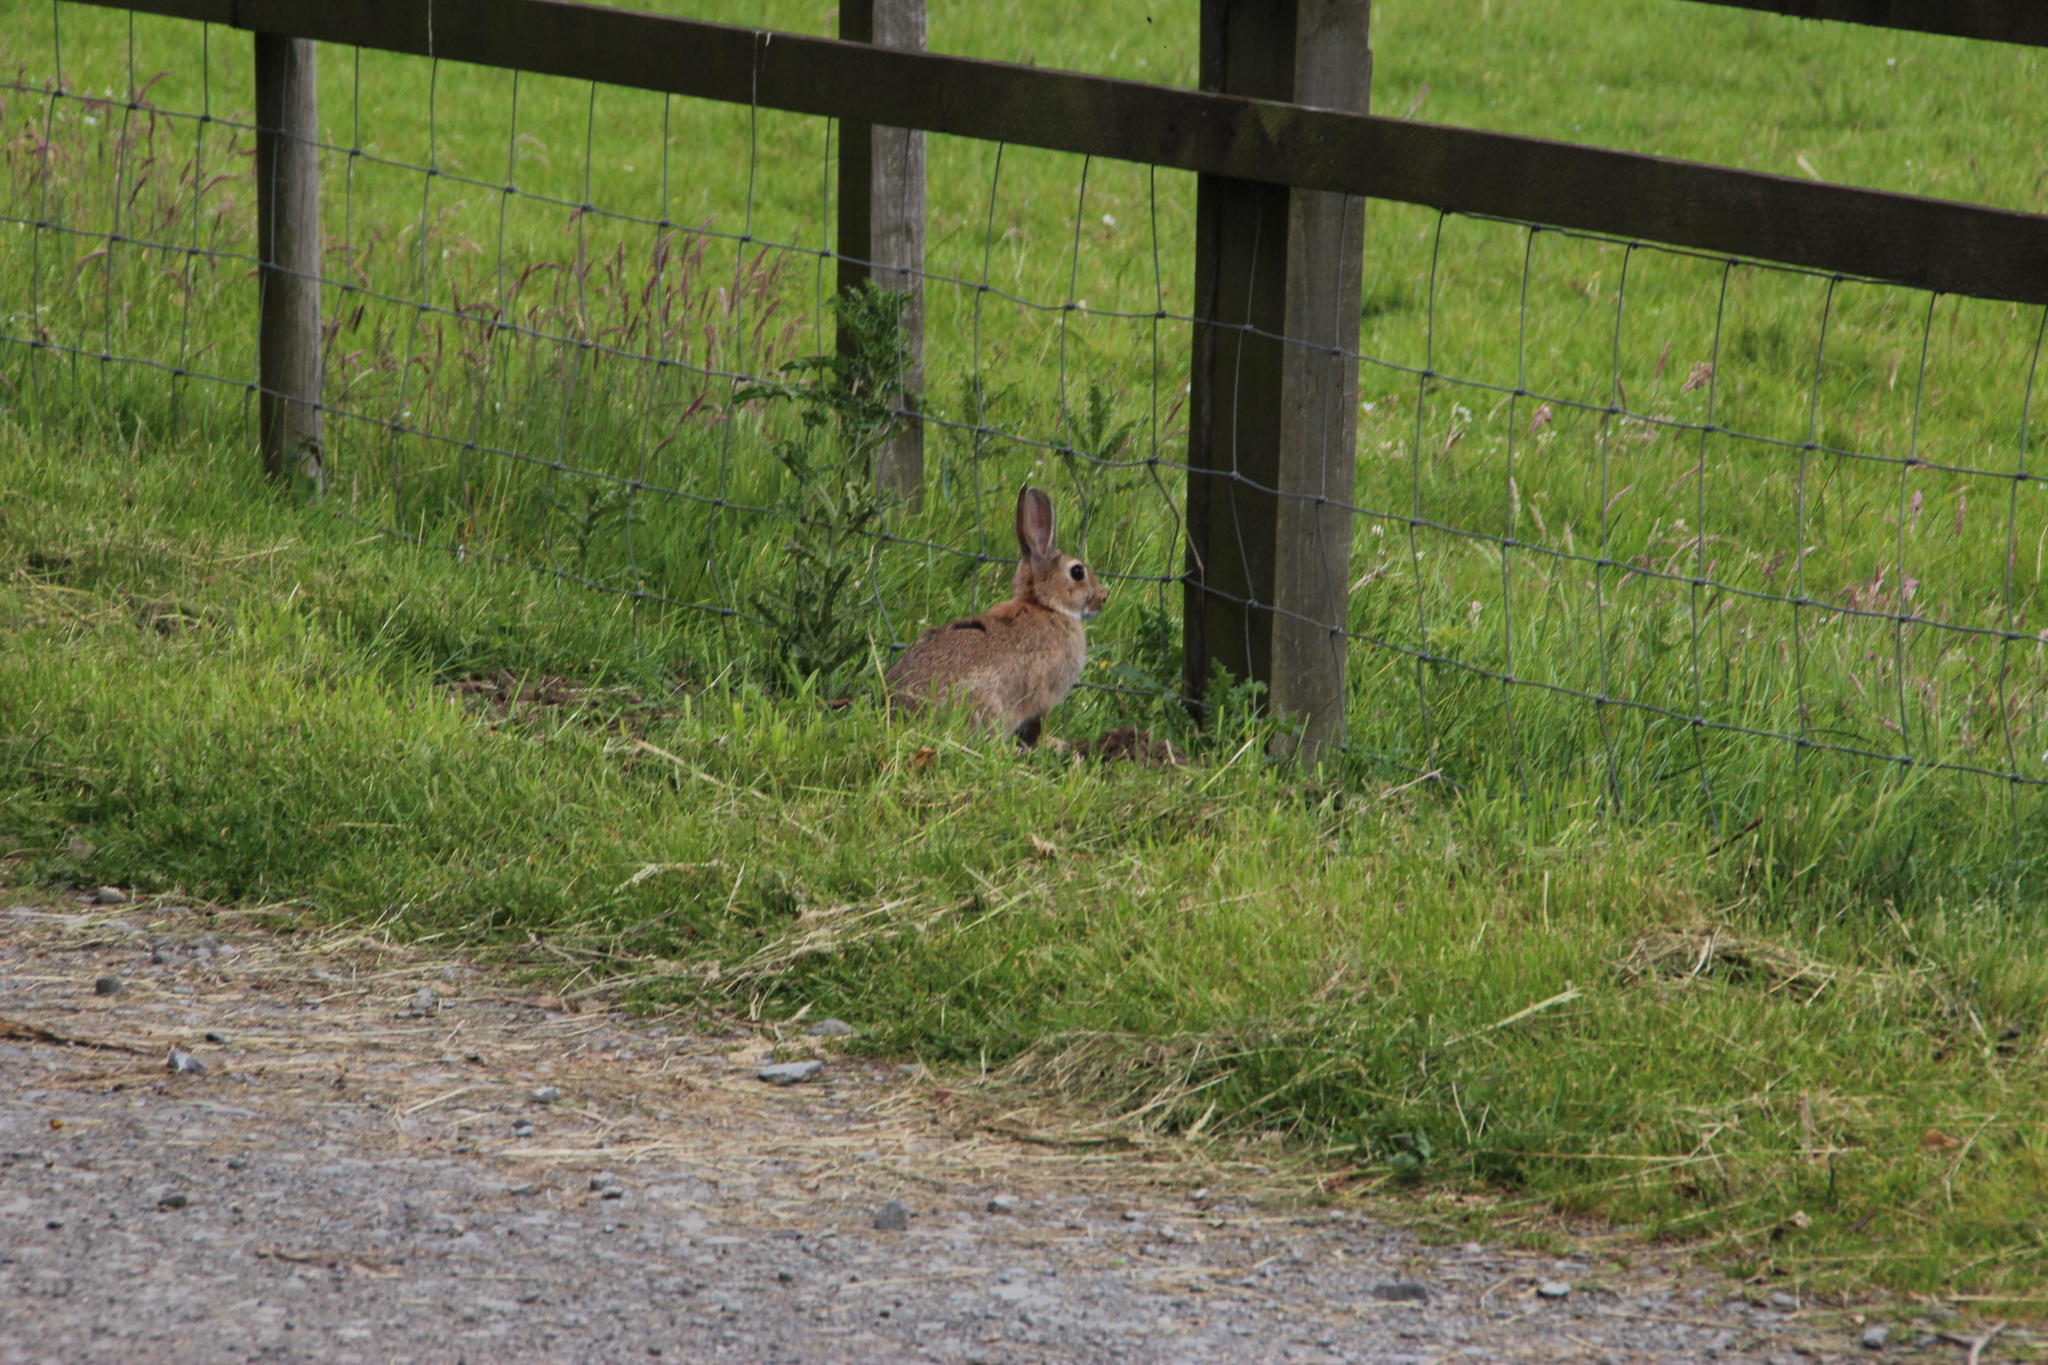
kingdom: Animalia
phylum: Chordata
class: Mammalia
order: Lagomorpha
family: Leporidae
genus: Oryctolagus
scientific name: Oryctolagus cuniculus
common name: European rabbit
